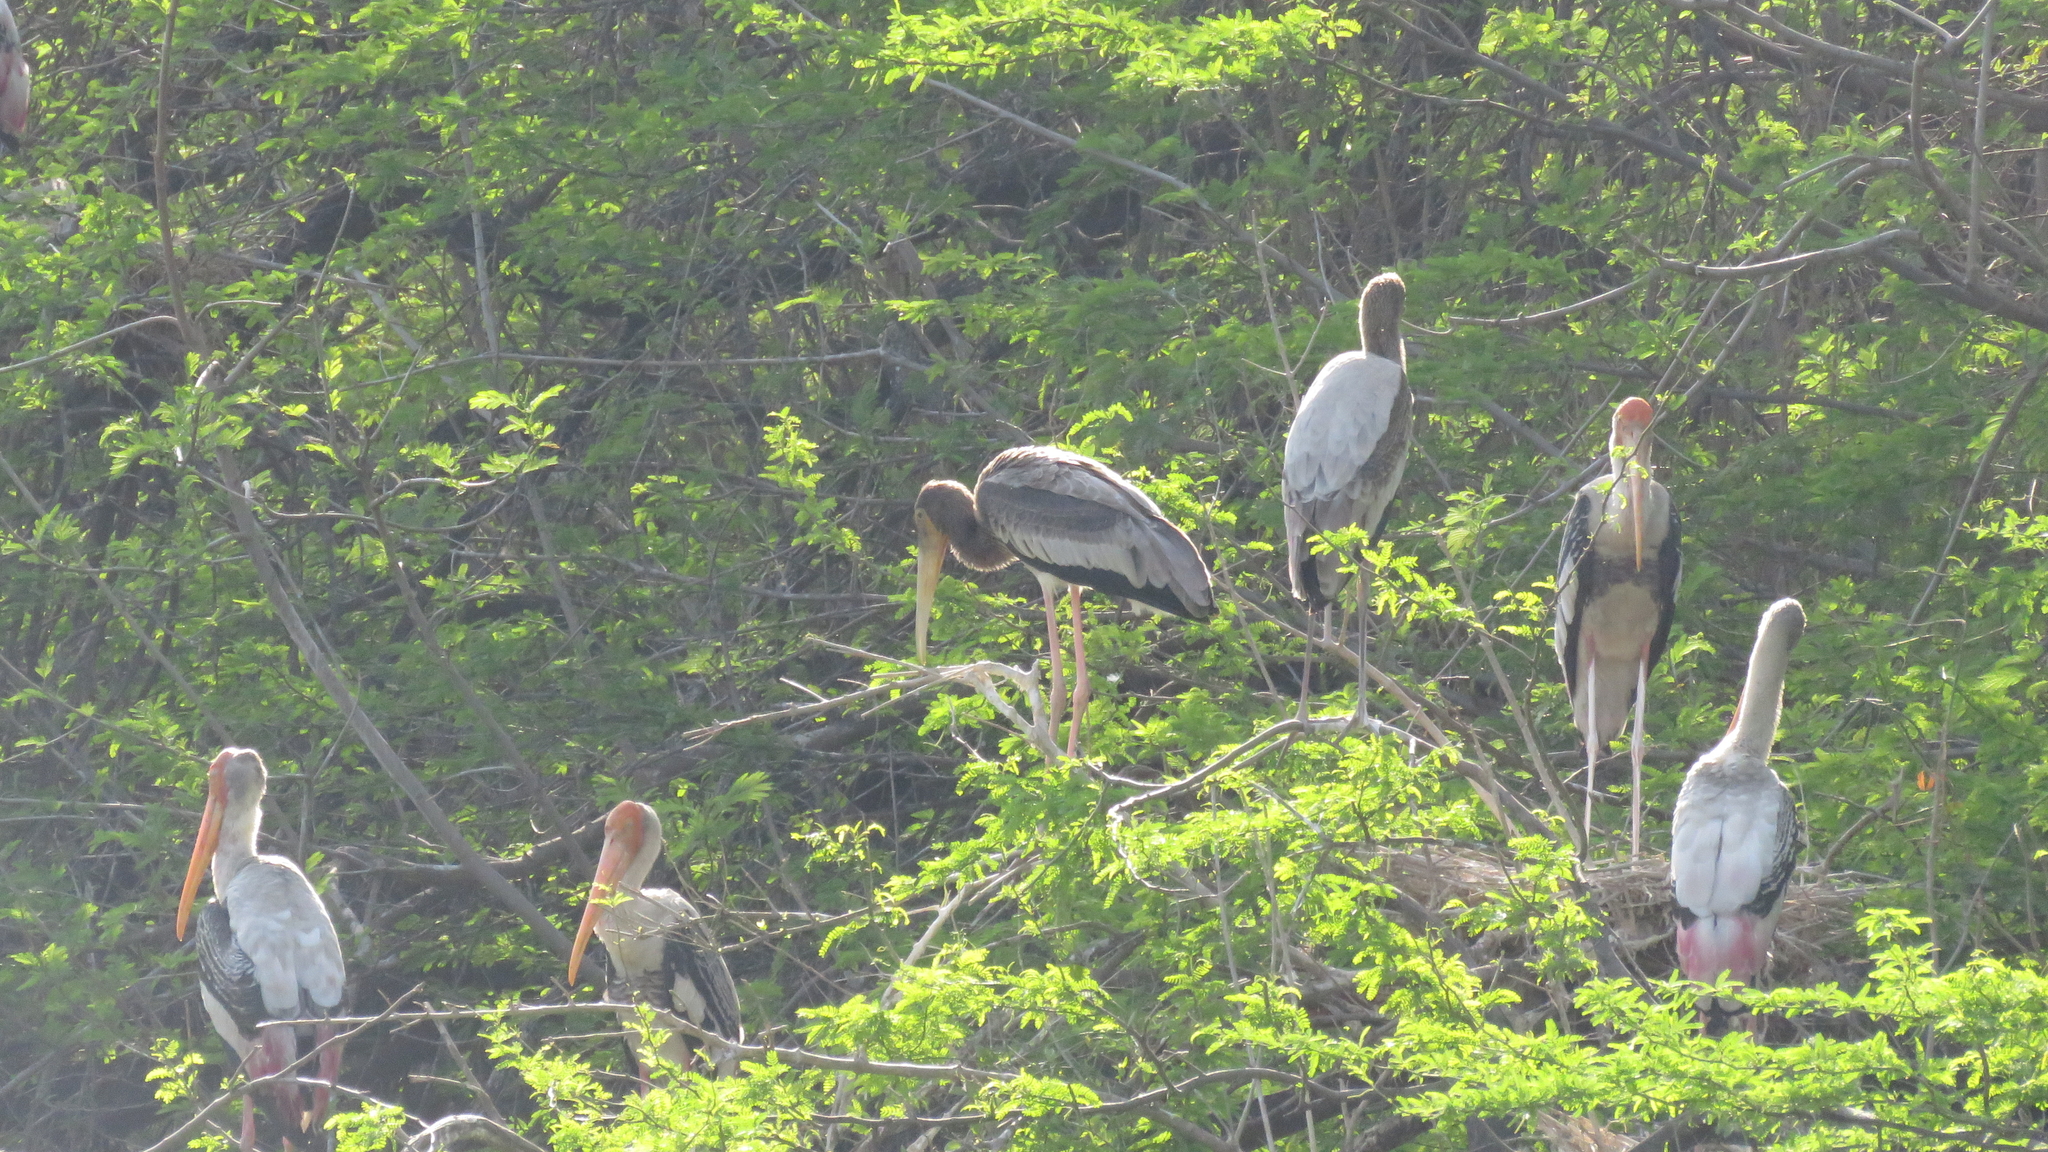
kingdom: Animalia
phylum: Chordata
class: Aves
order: Ciconiiformes
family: Ciconiidae
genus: Mycteria
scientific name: Mycteria leucocephala
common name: Painted stork
